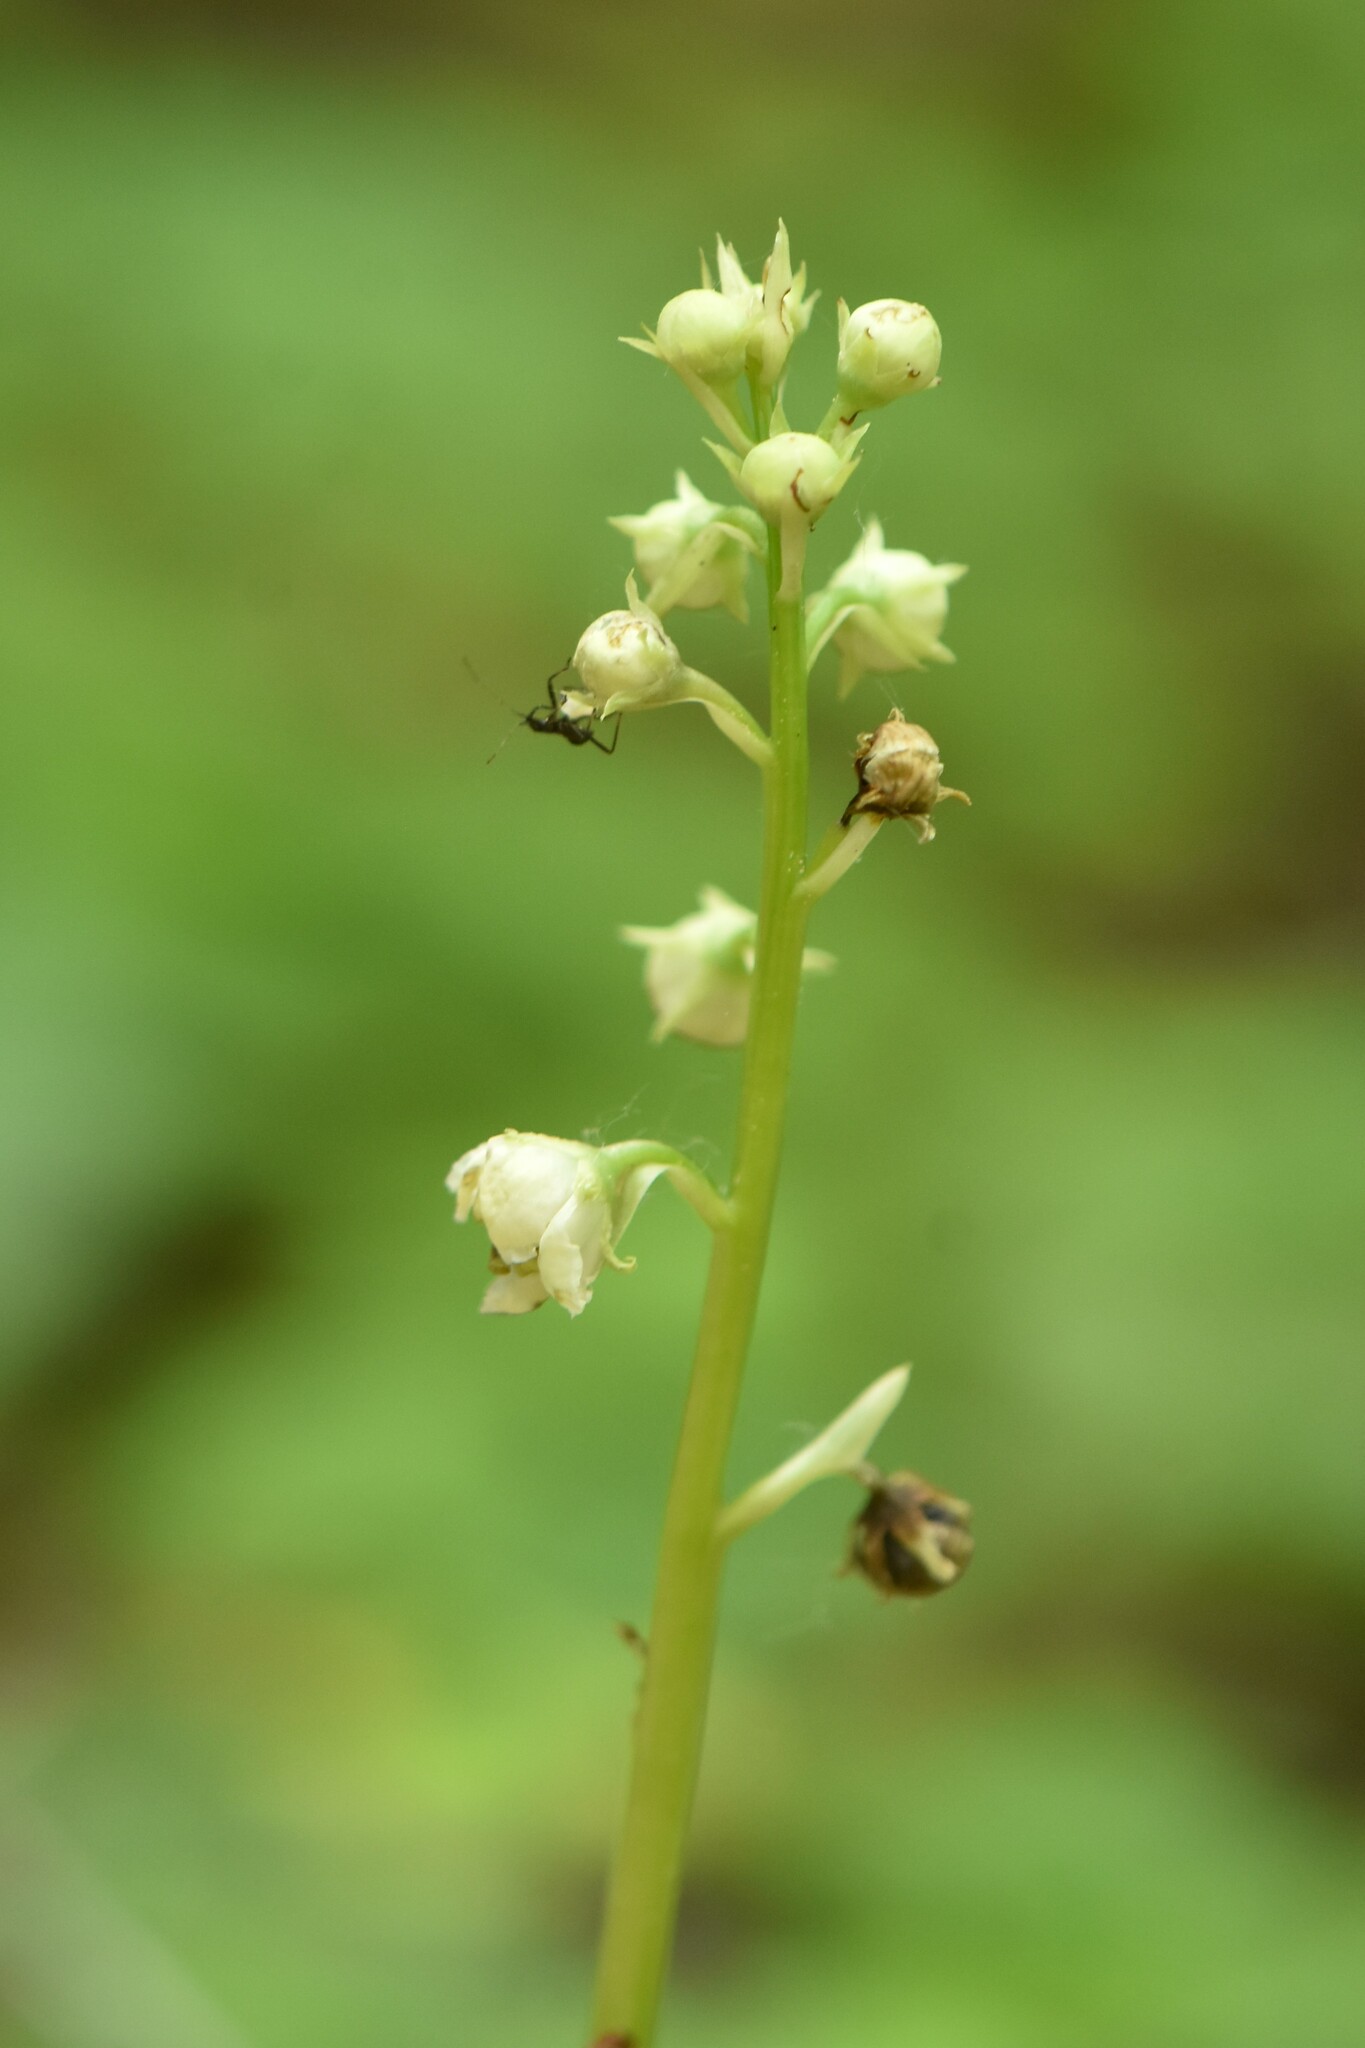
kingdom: Plantae
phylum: Tracheophyta
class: Magnoliopsida
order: Ericales
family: Ericaceae
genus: Pyrola
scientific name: Pyrola rotundifolia
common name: Round-leaved wintergreen
